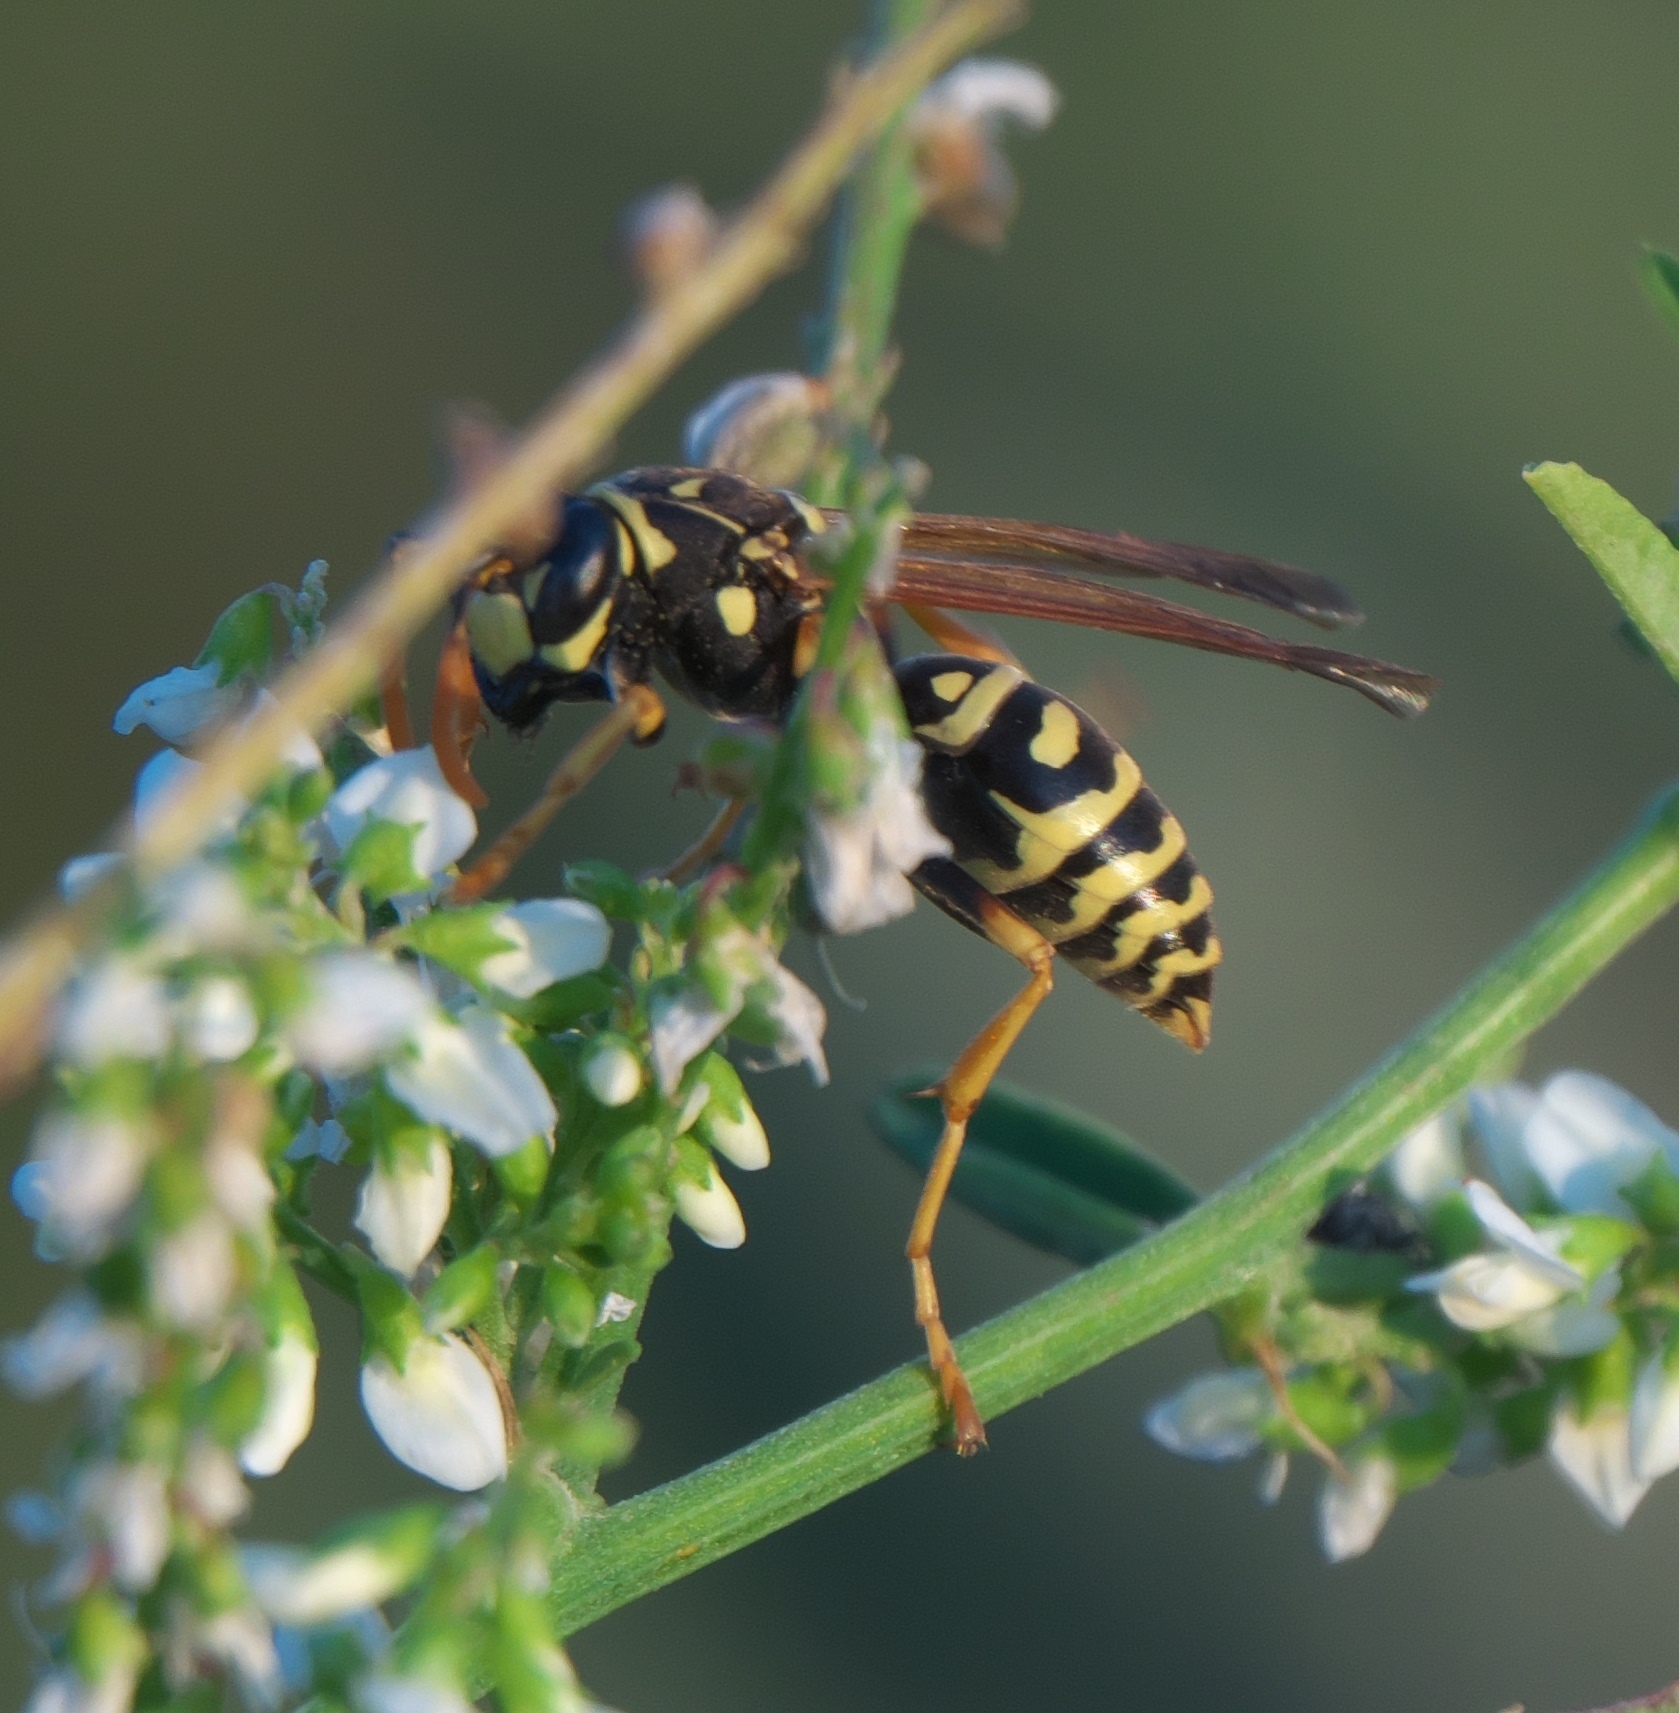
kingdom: Animalia
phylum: Arthropoda
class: Insecta
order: Hymenoptera
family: Eumenidae
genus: Polistes
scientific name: Polistes dominula
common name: Paper wasp
